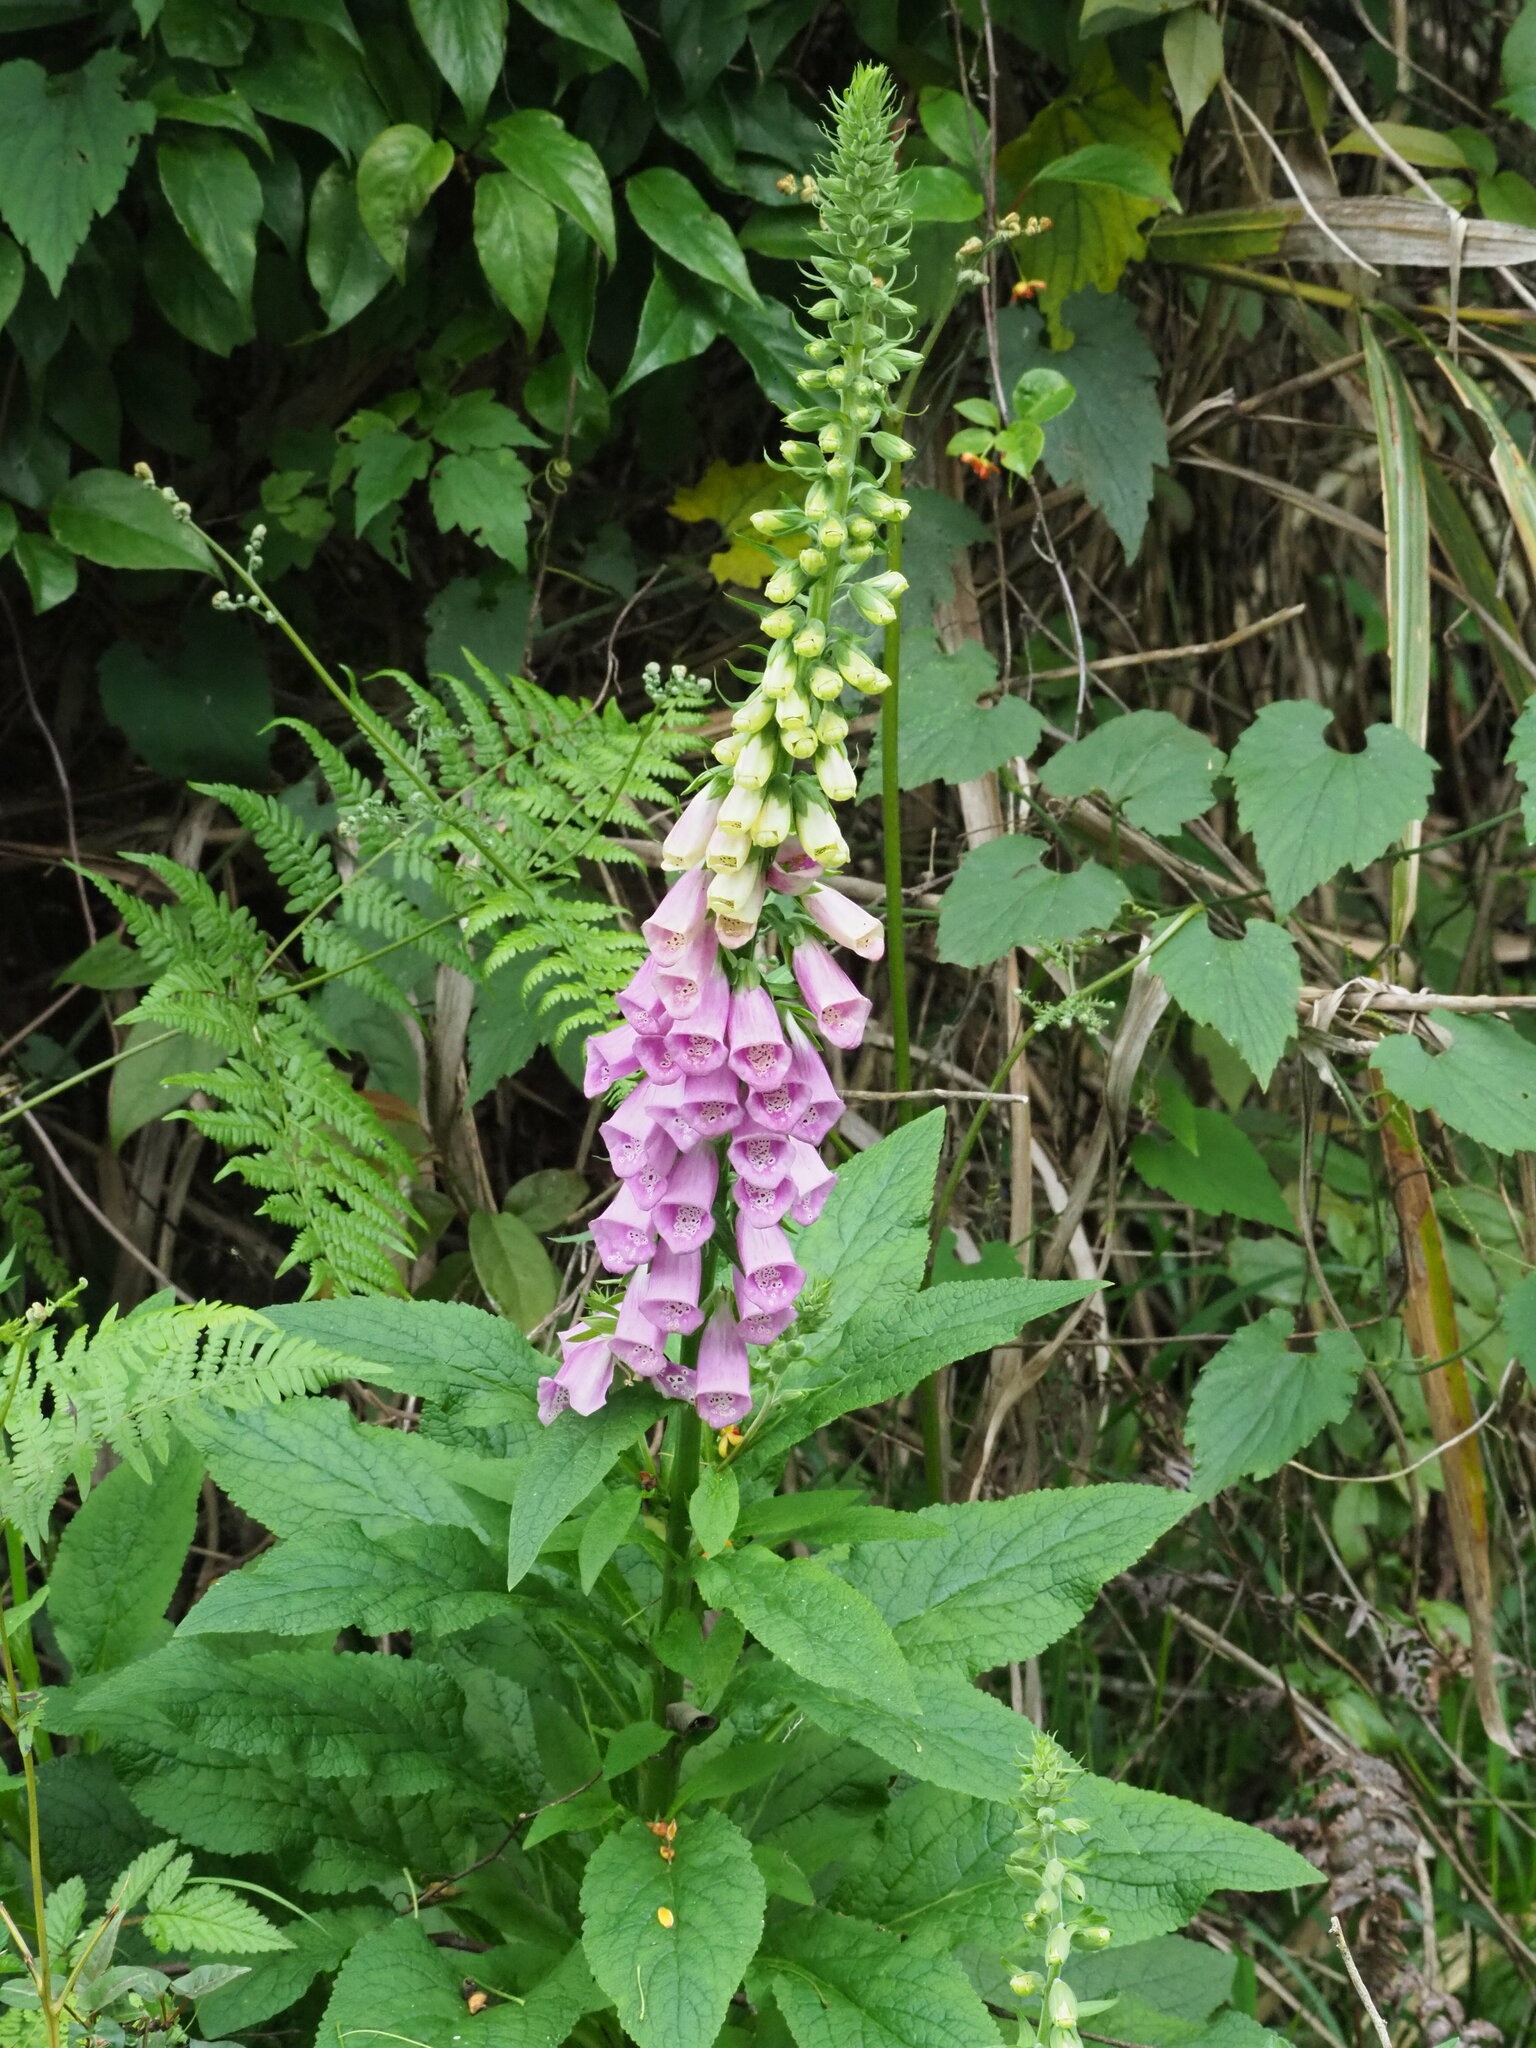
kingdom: Plantae
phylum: Tracheophyta
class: Magnoliopsida
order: Lamiales
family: Plantaginaceae
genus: Digitalis
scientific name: Digitalis purpurea
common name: Foxglove
